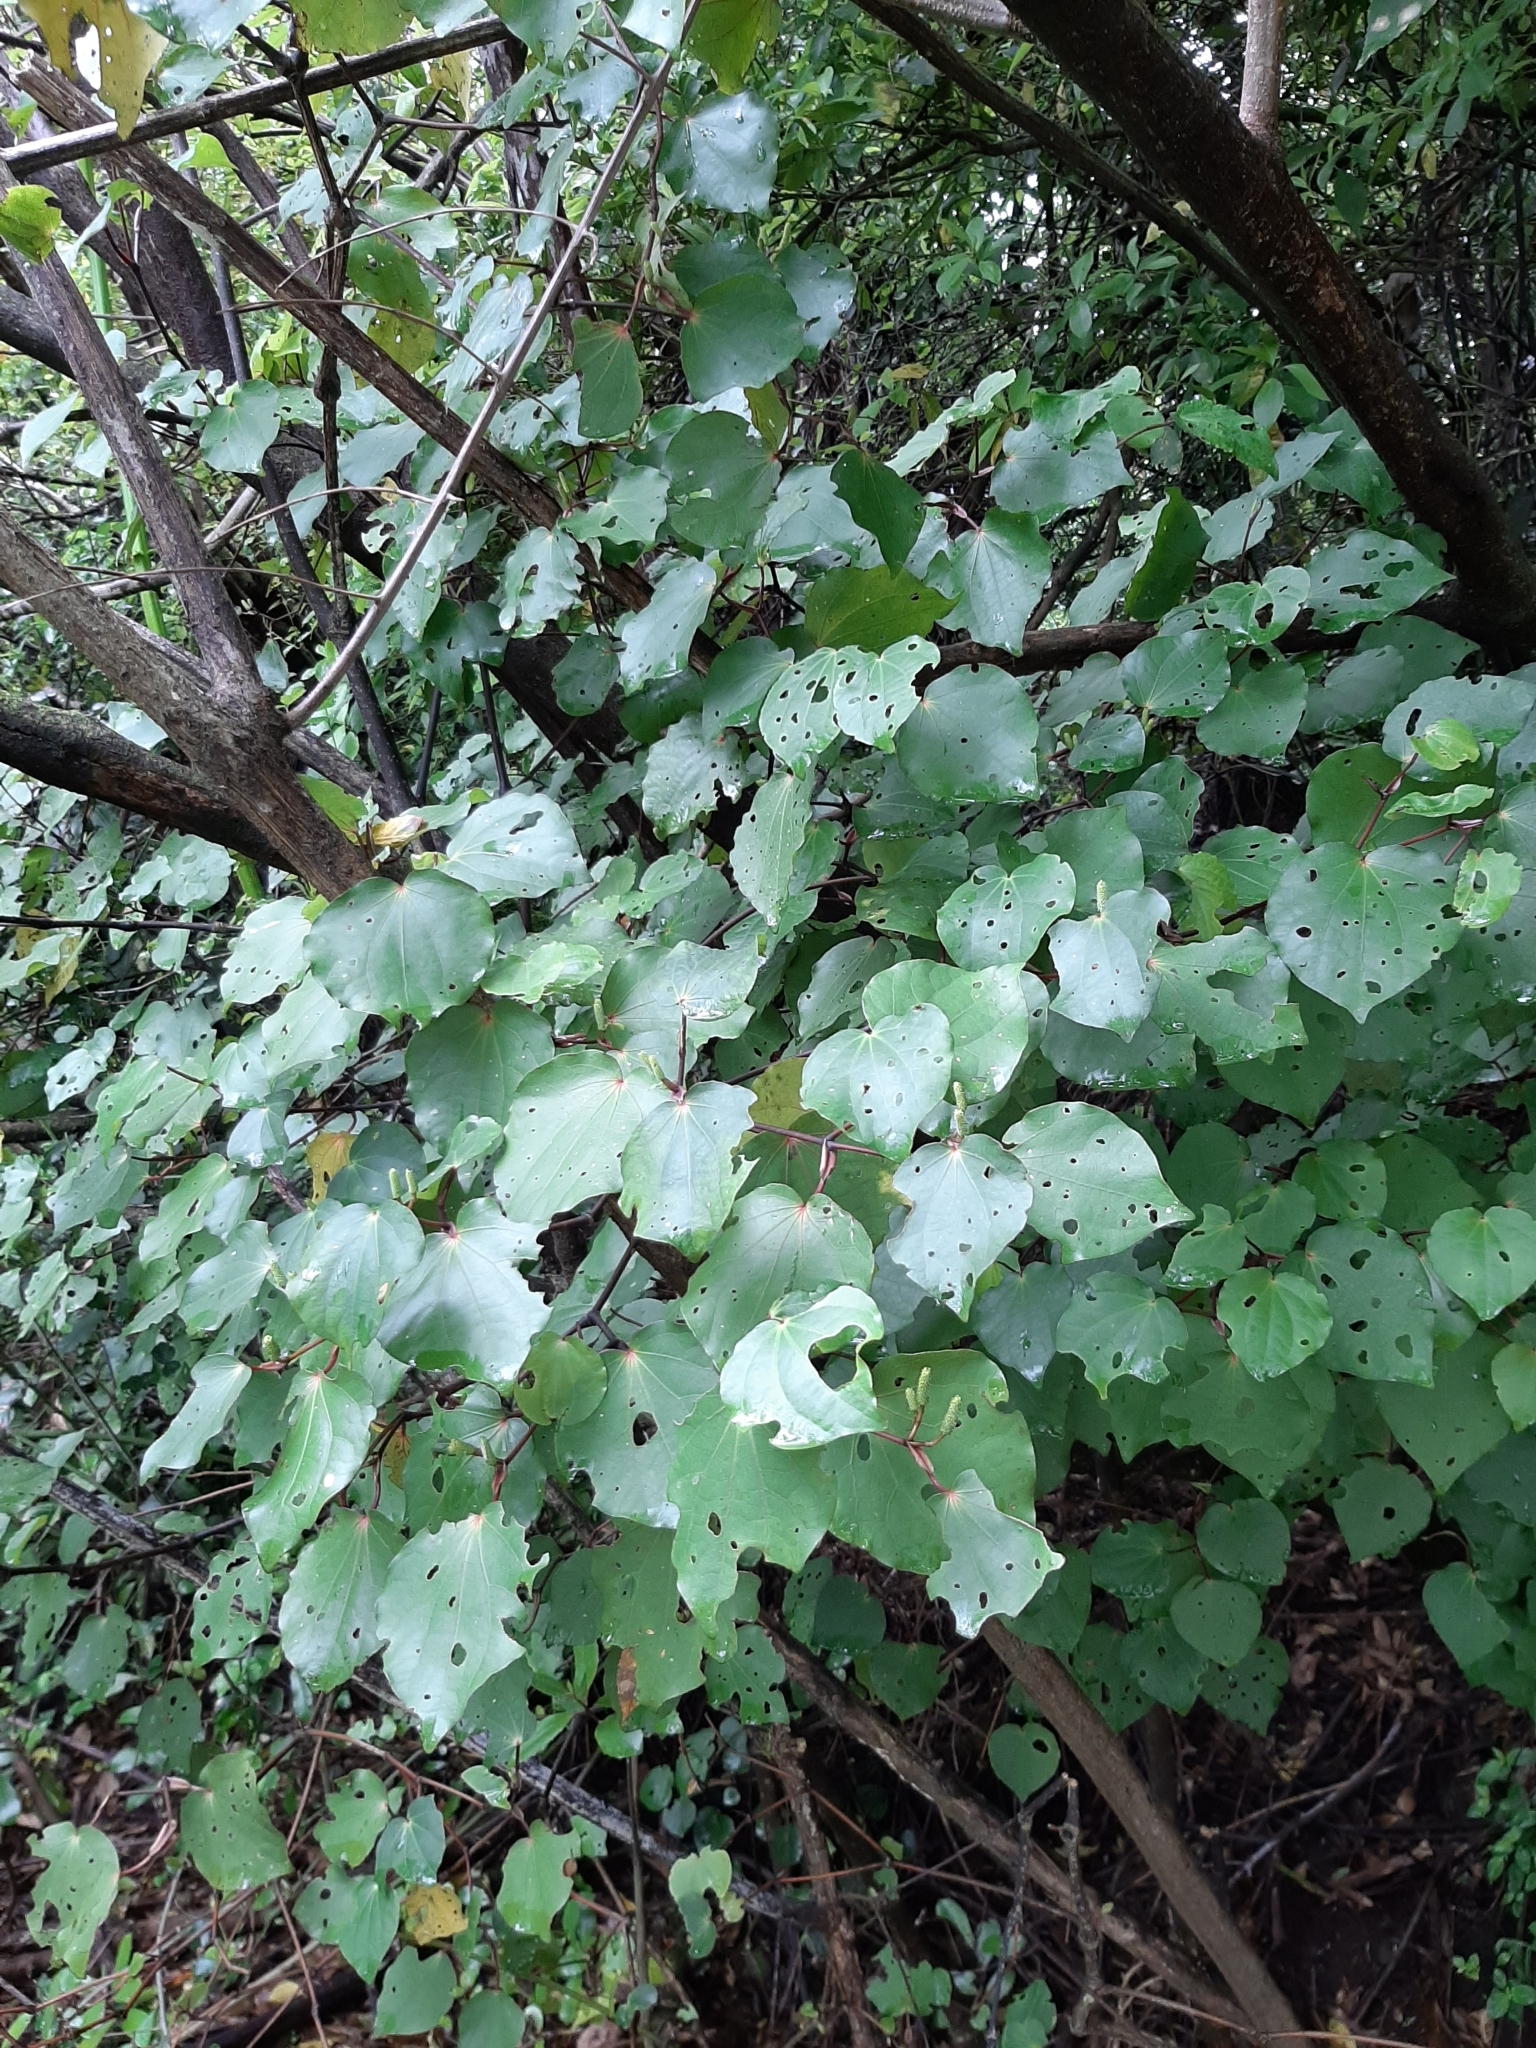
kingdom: Plantae
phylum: Tracheophyta
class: Magnoliopsida
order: Piperales
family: Piperaceae
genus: Macropiper
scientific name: Macropiper excelsum
